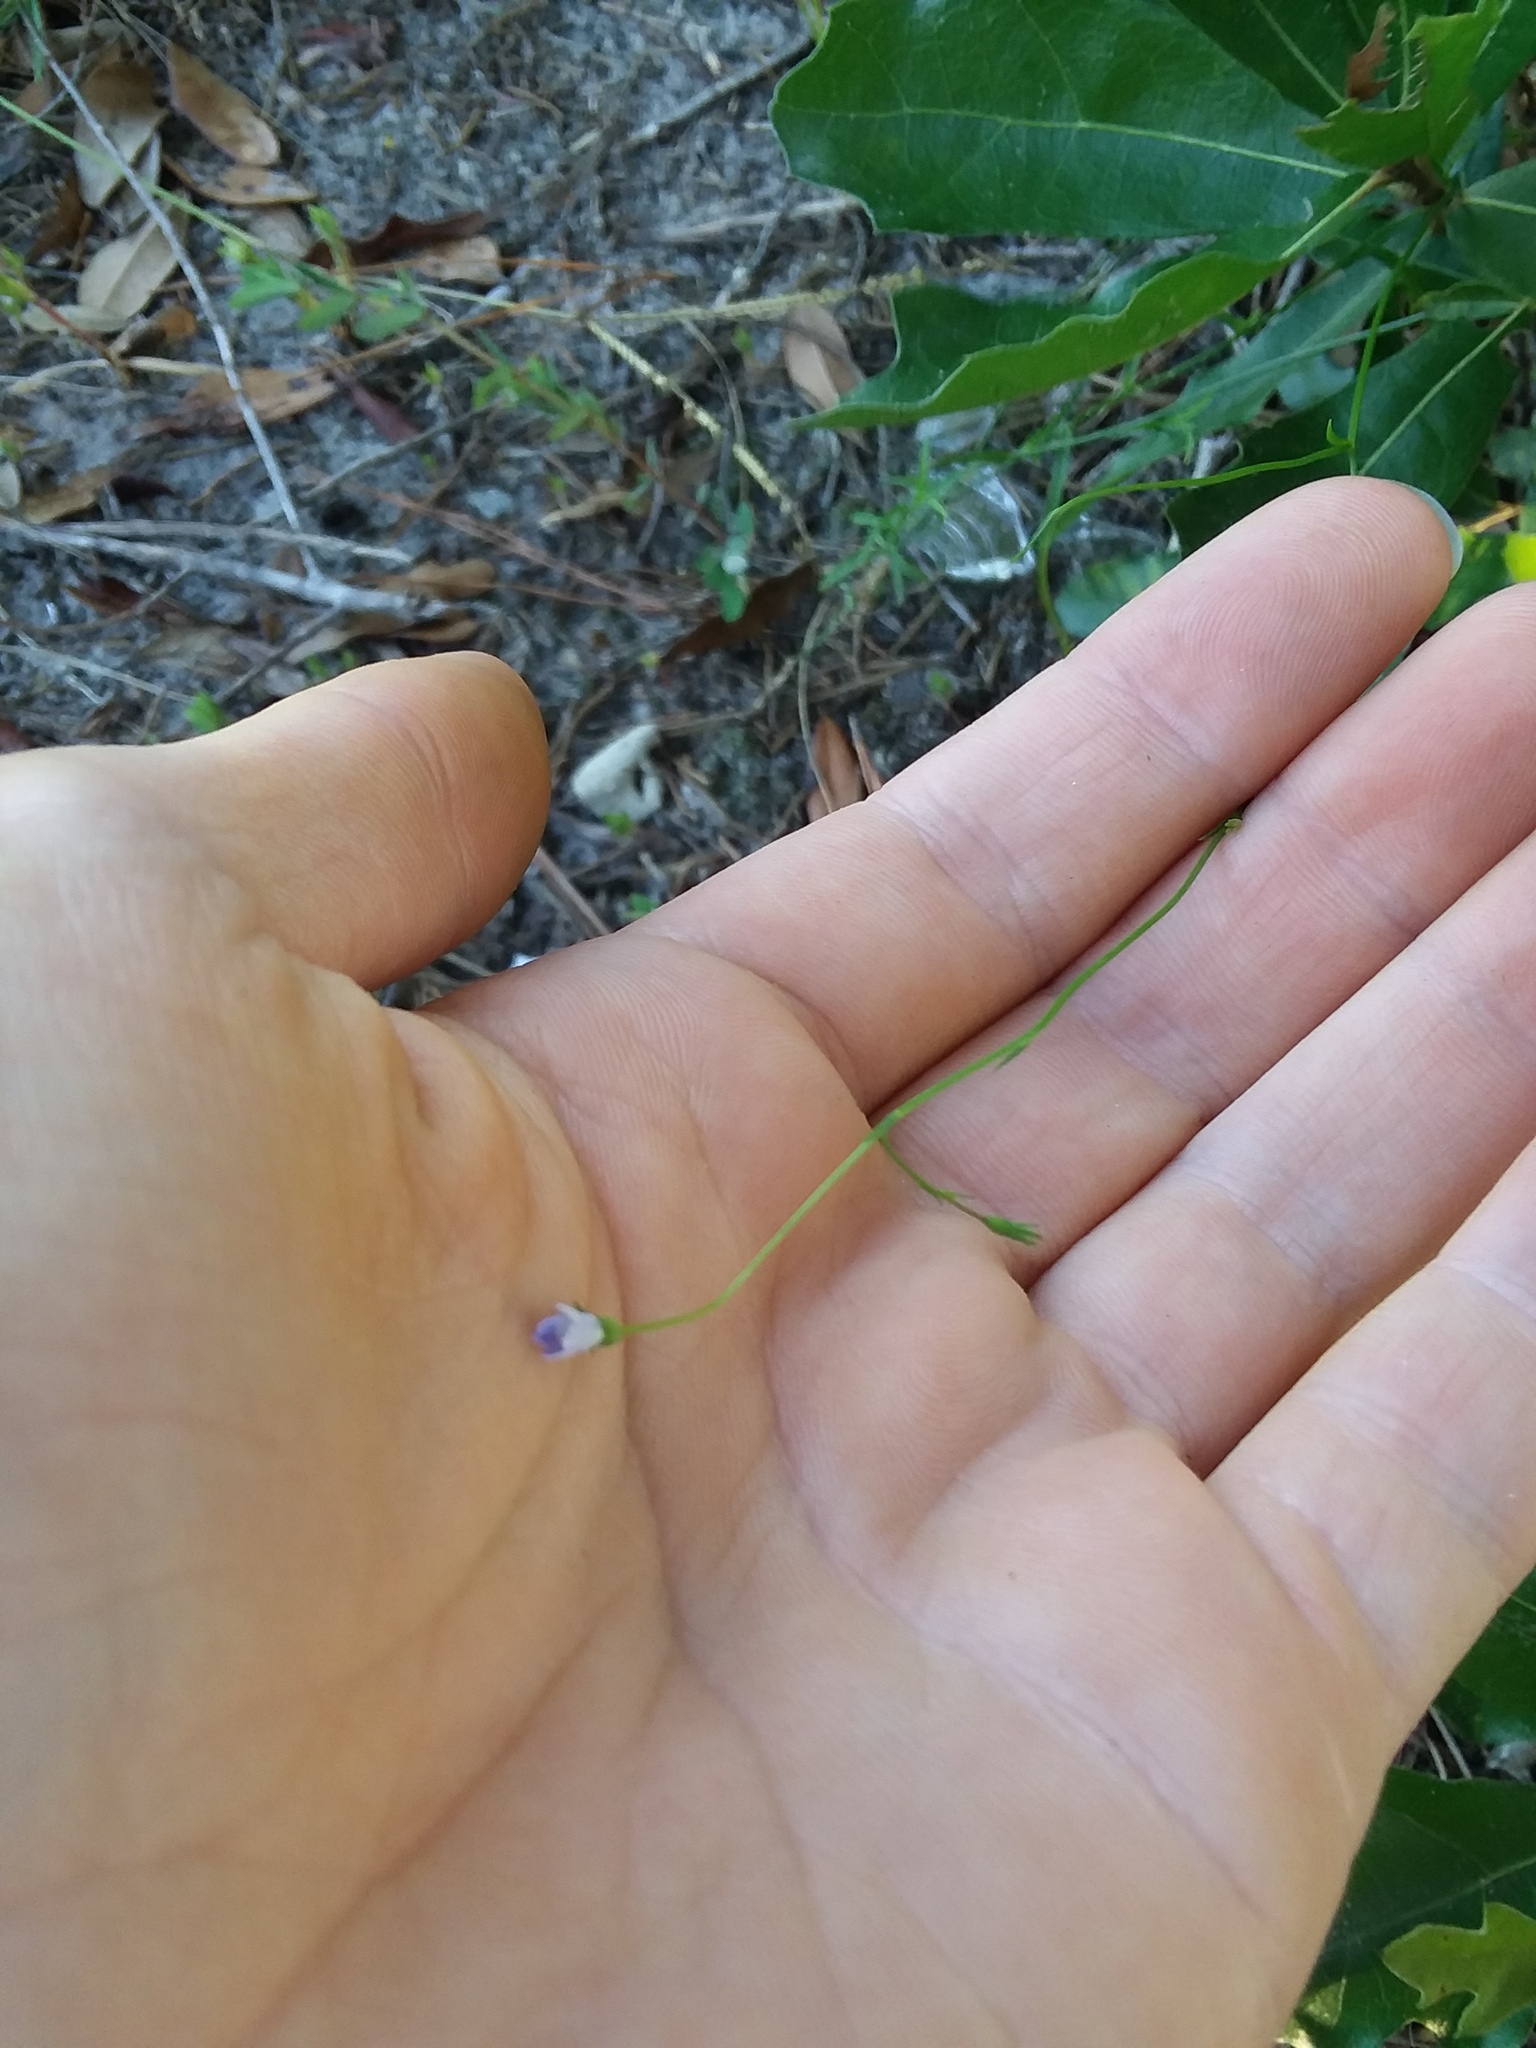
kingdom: Plantae
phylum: Tracheophyta
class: Magnoliopsida
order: Asterales
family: Campanulaceae
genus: Wahlenbergia
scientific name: Wahlenbergia marginata
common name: Southern rockbell
